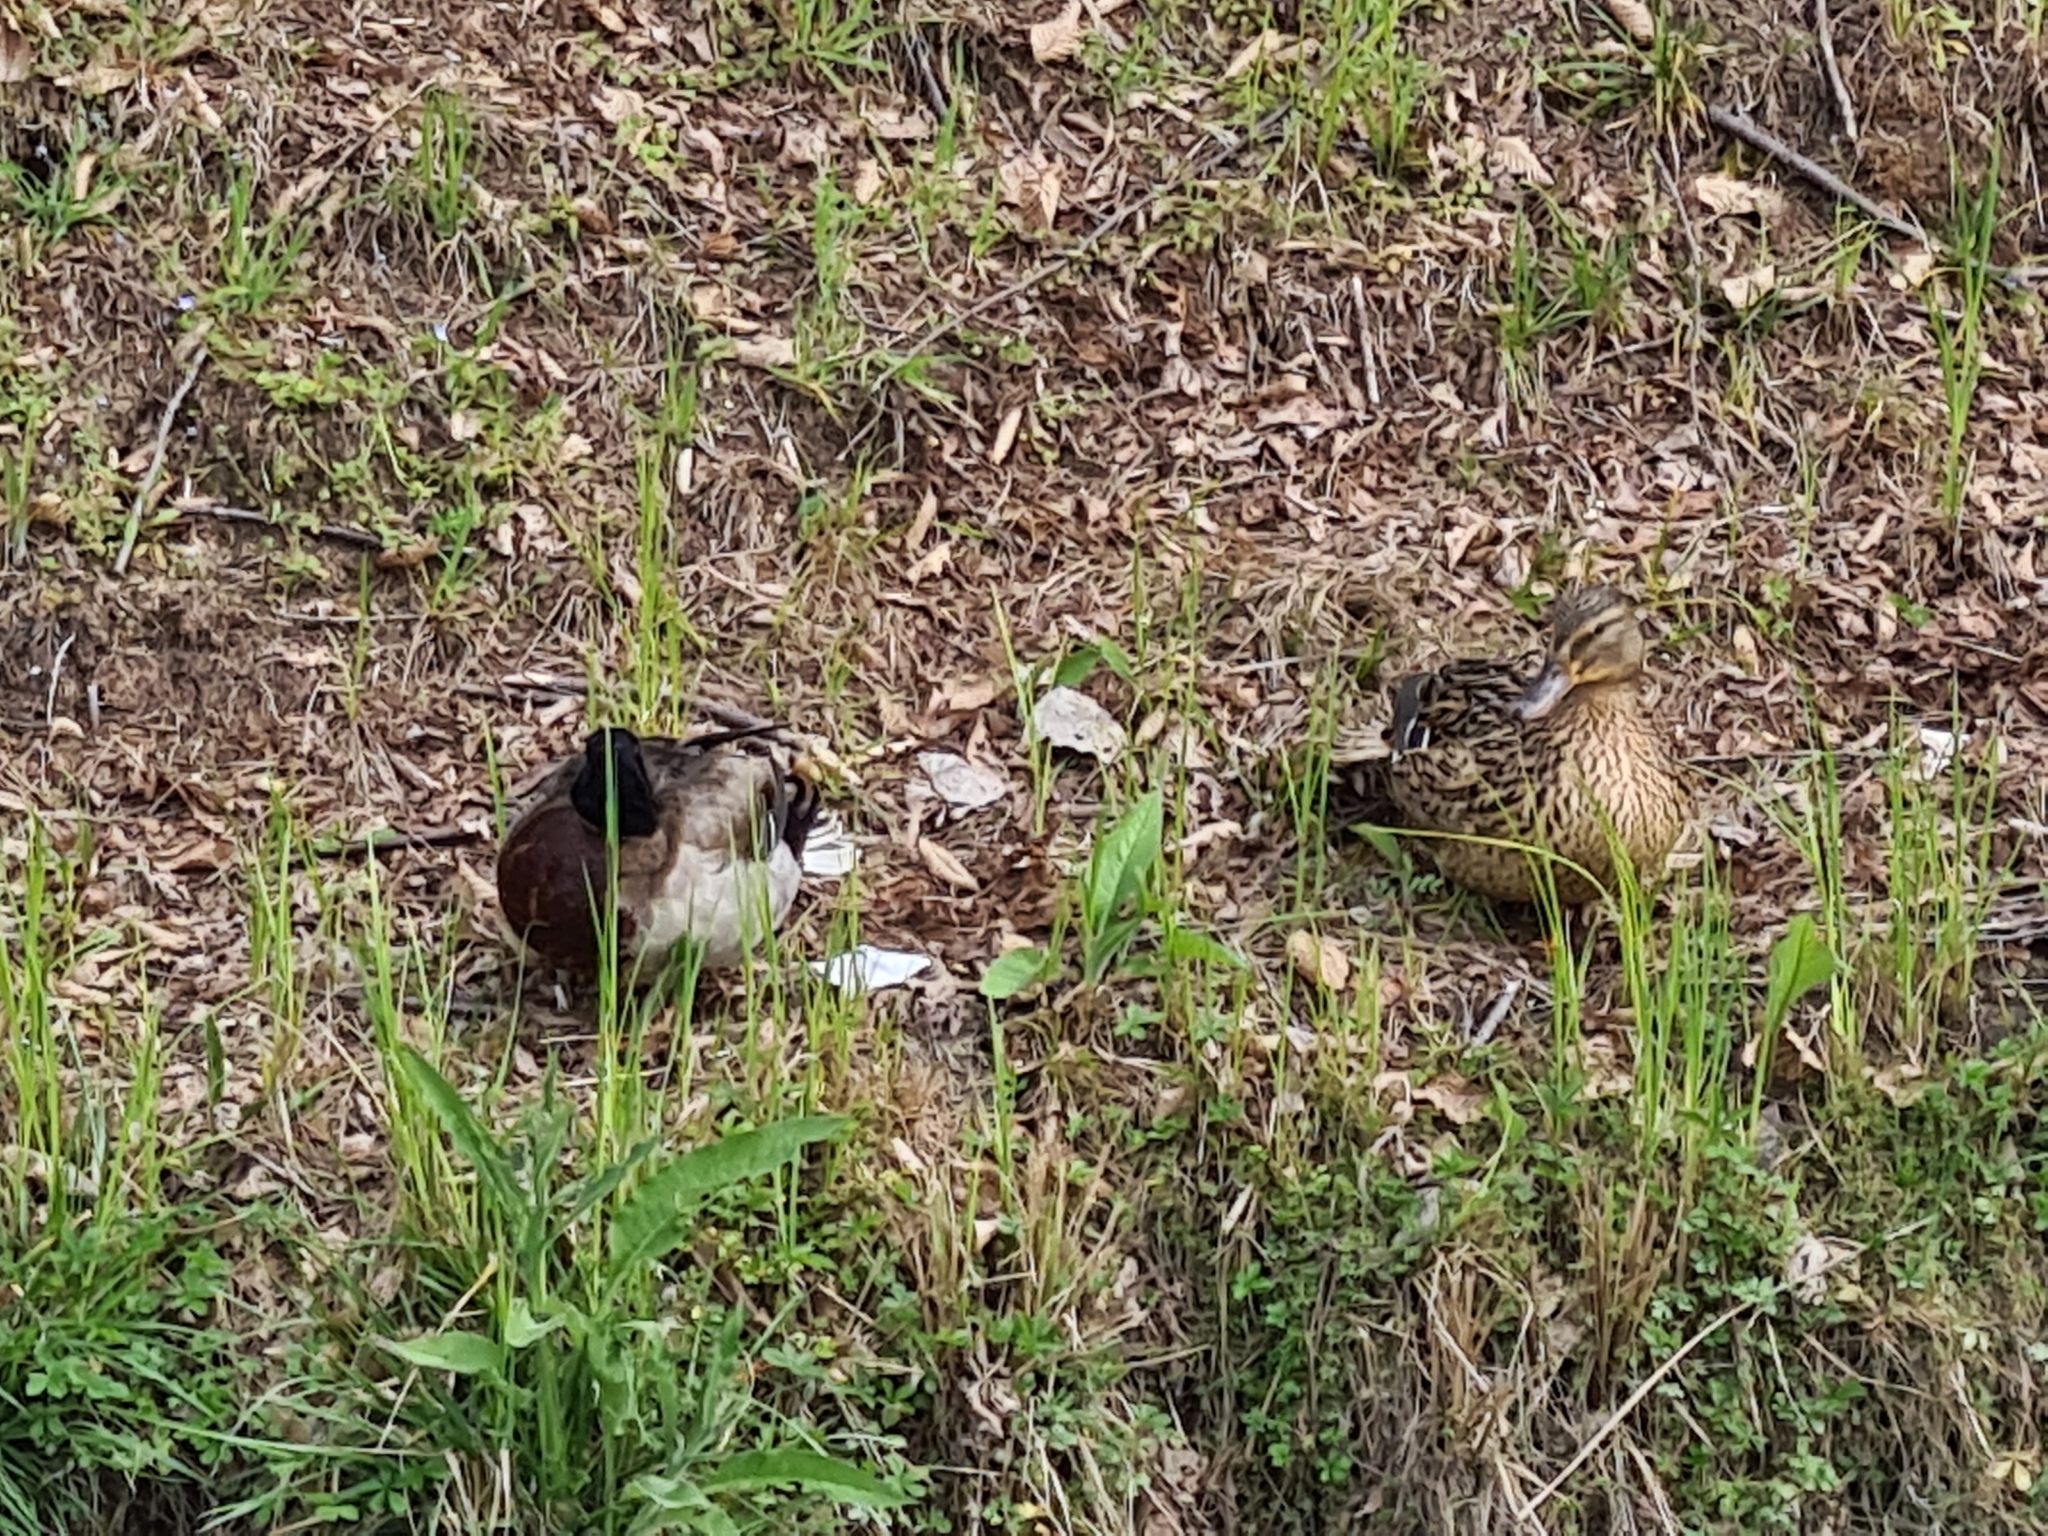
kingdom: Animalia
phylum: Chordata
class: Aves
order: Anseriformes
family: Anatidae
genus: Anas
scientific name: Anas platyrhynchos
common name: Mallard
